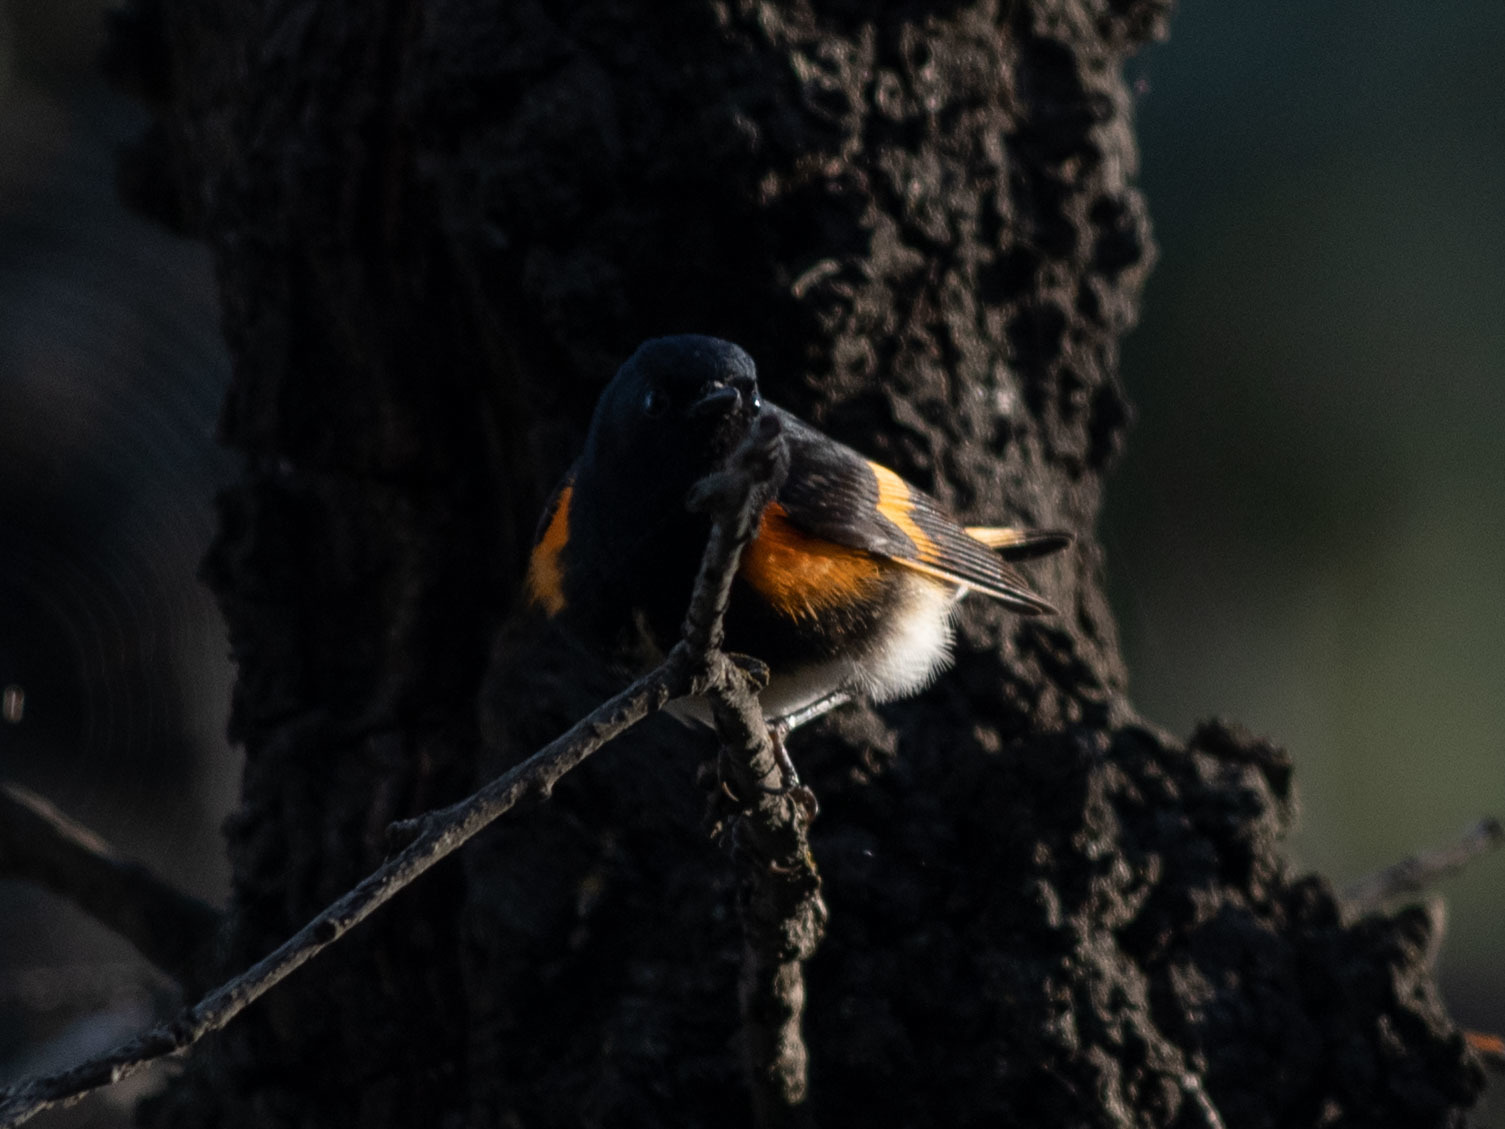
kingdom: Animalia
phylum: Chordata
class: Aves
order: Passeriformes
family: Parulidae
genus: Setophaga
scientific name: Setophaga ruticilla
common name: American redstart
